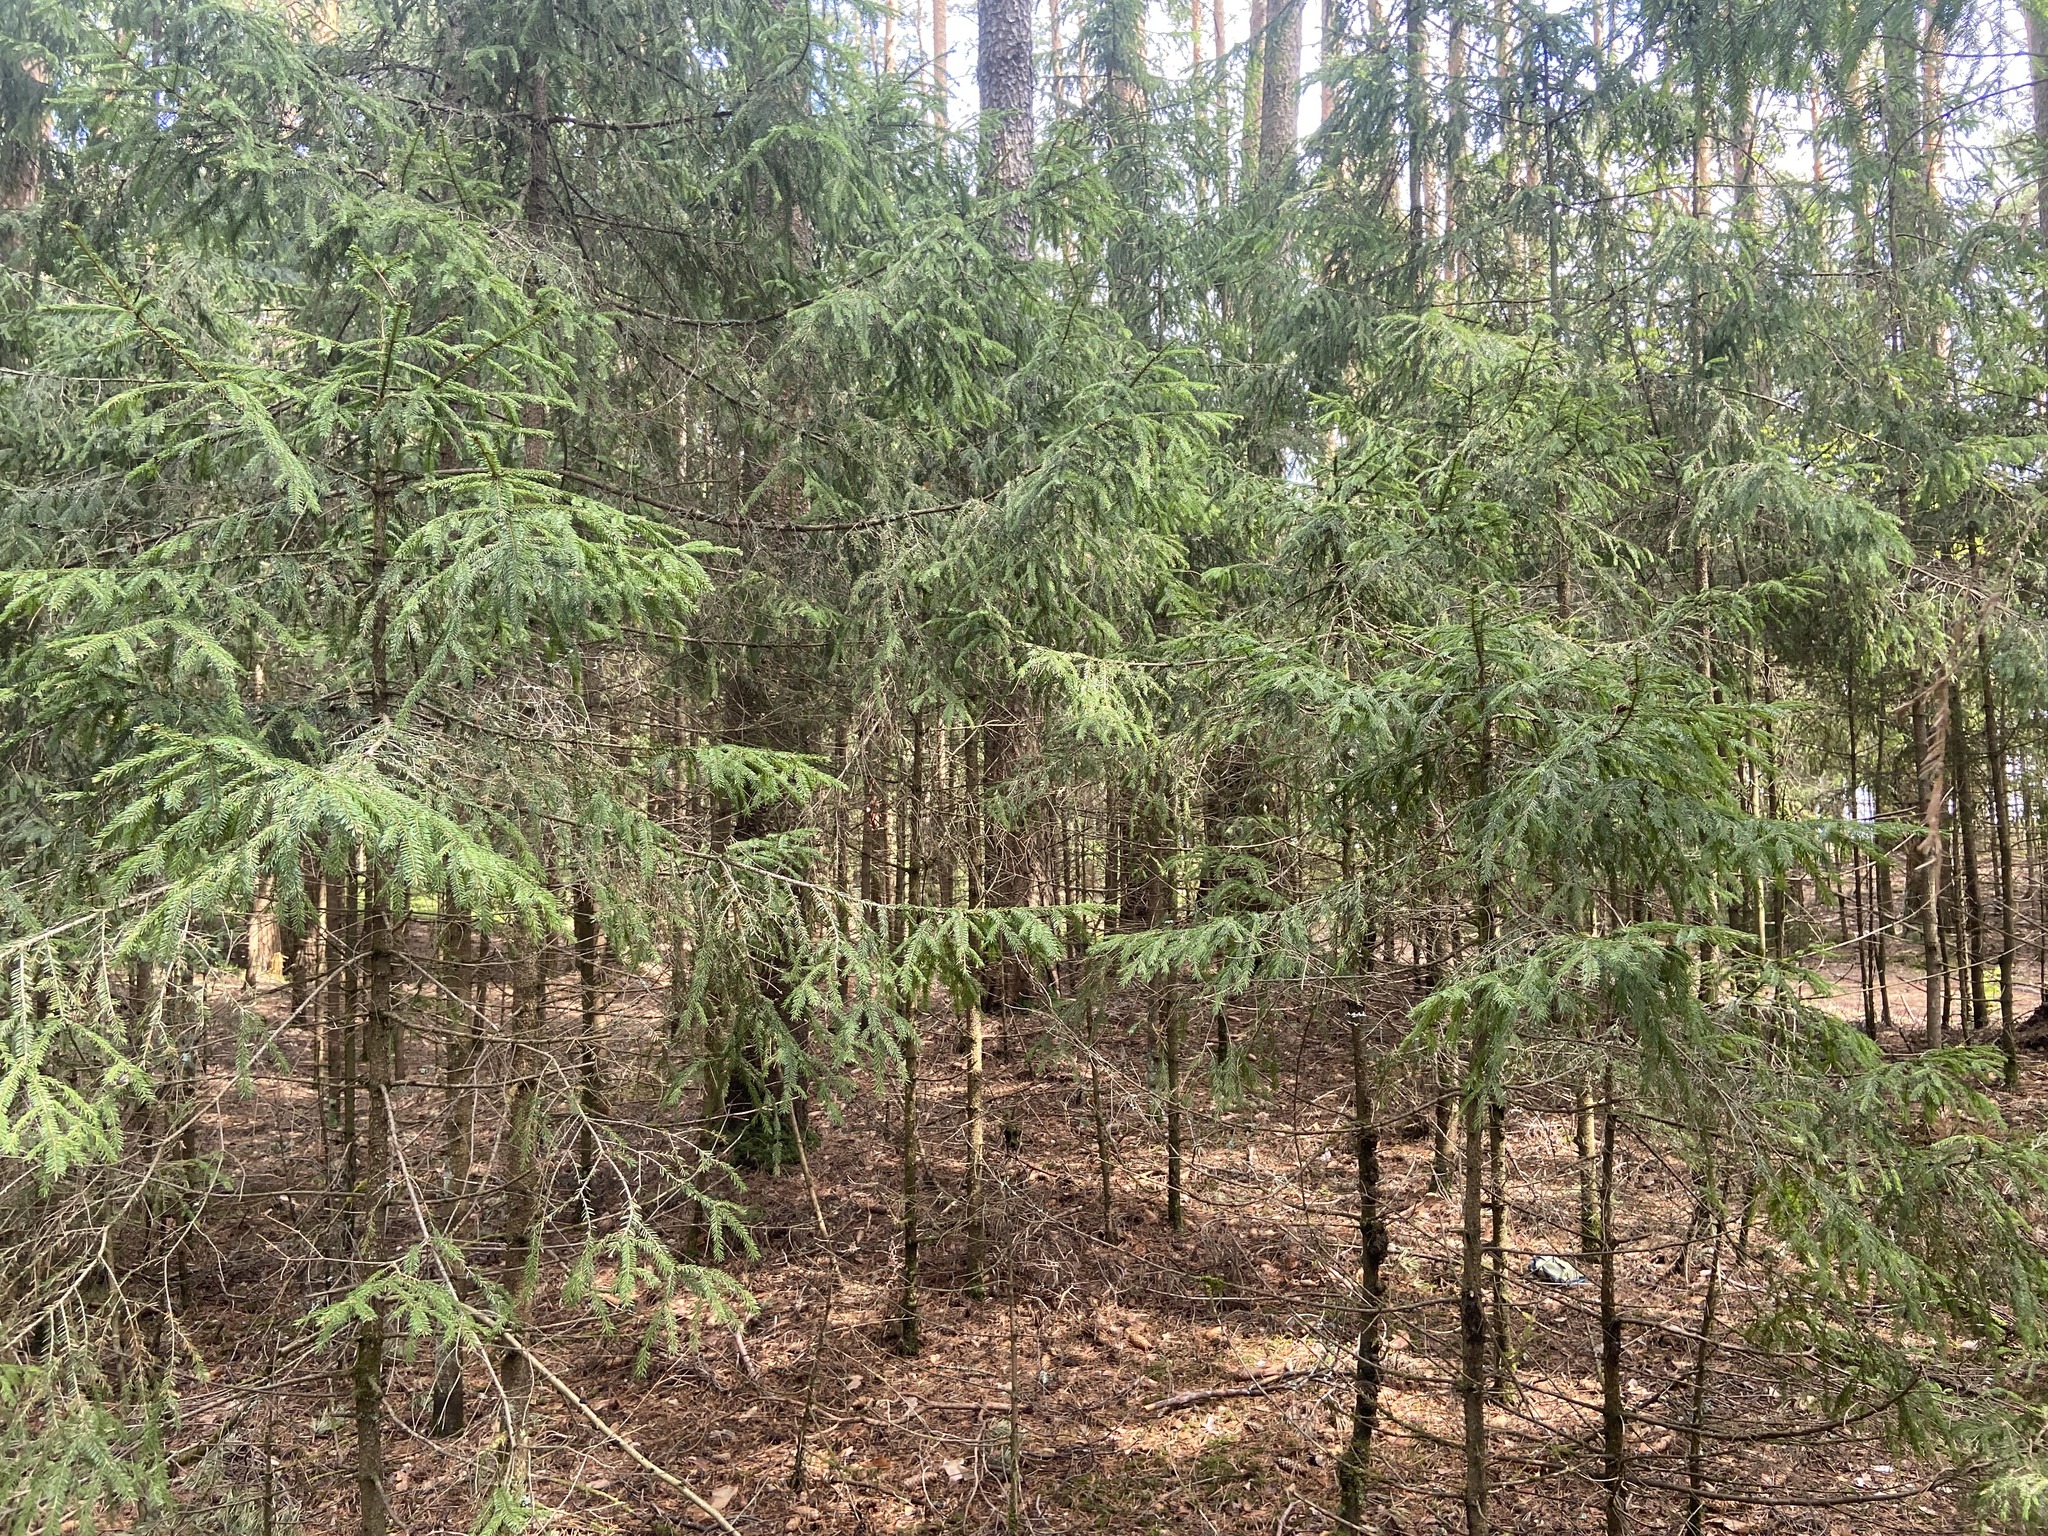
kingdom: Plantae
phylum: Tracheophyta
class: Pinopsida
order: Pinales
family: Pinaceae
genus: Picea
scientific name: Picea abies
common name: Norway spruce
